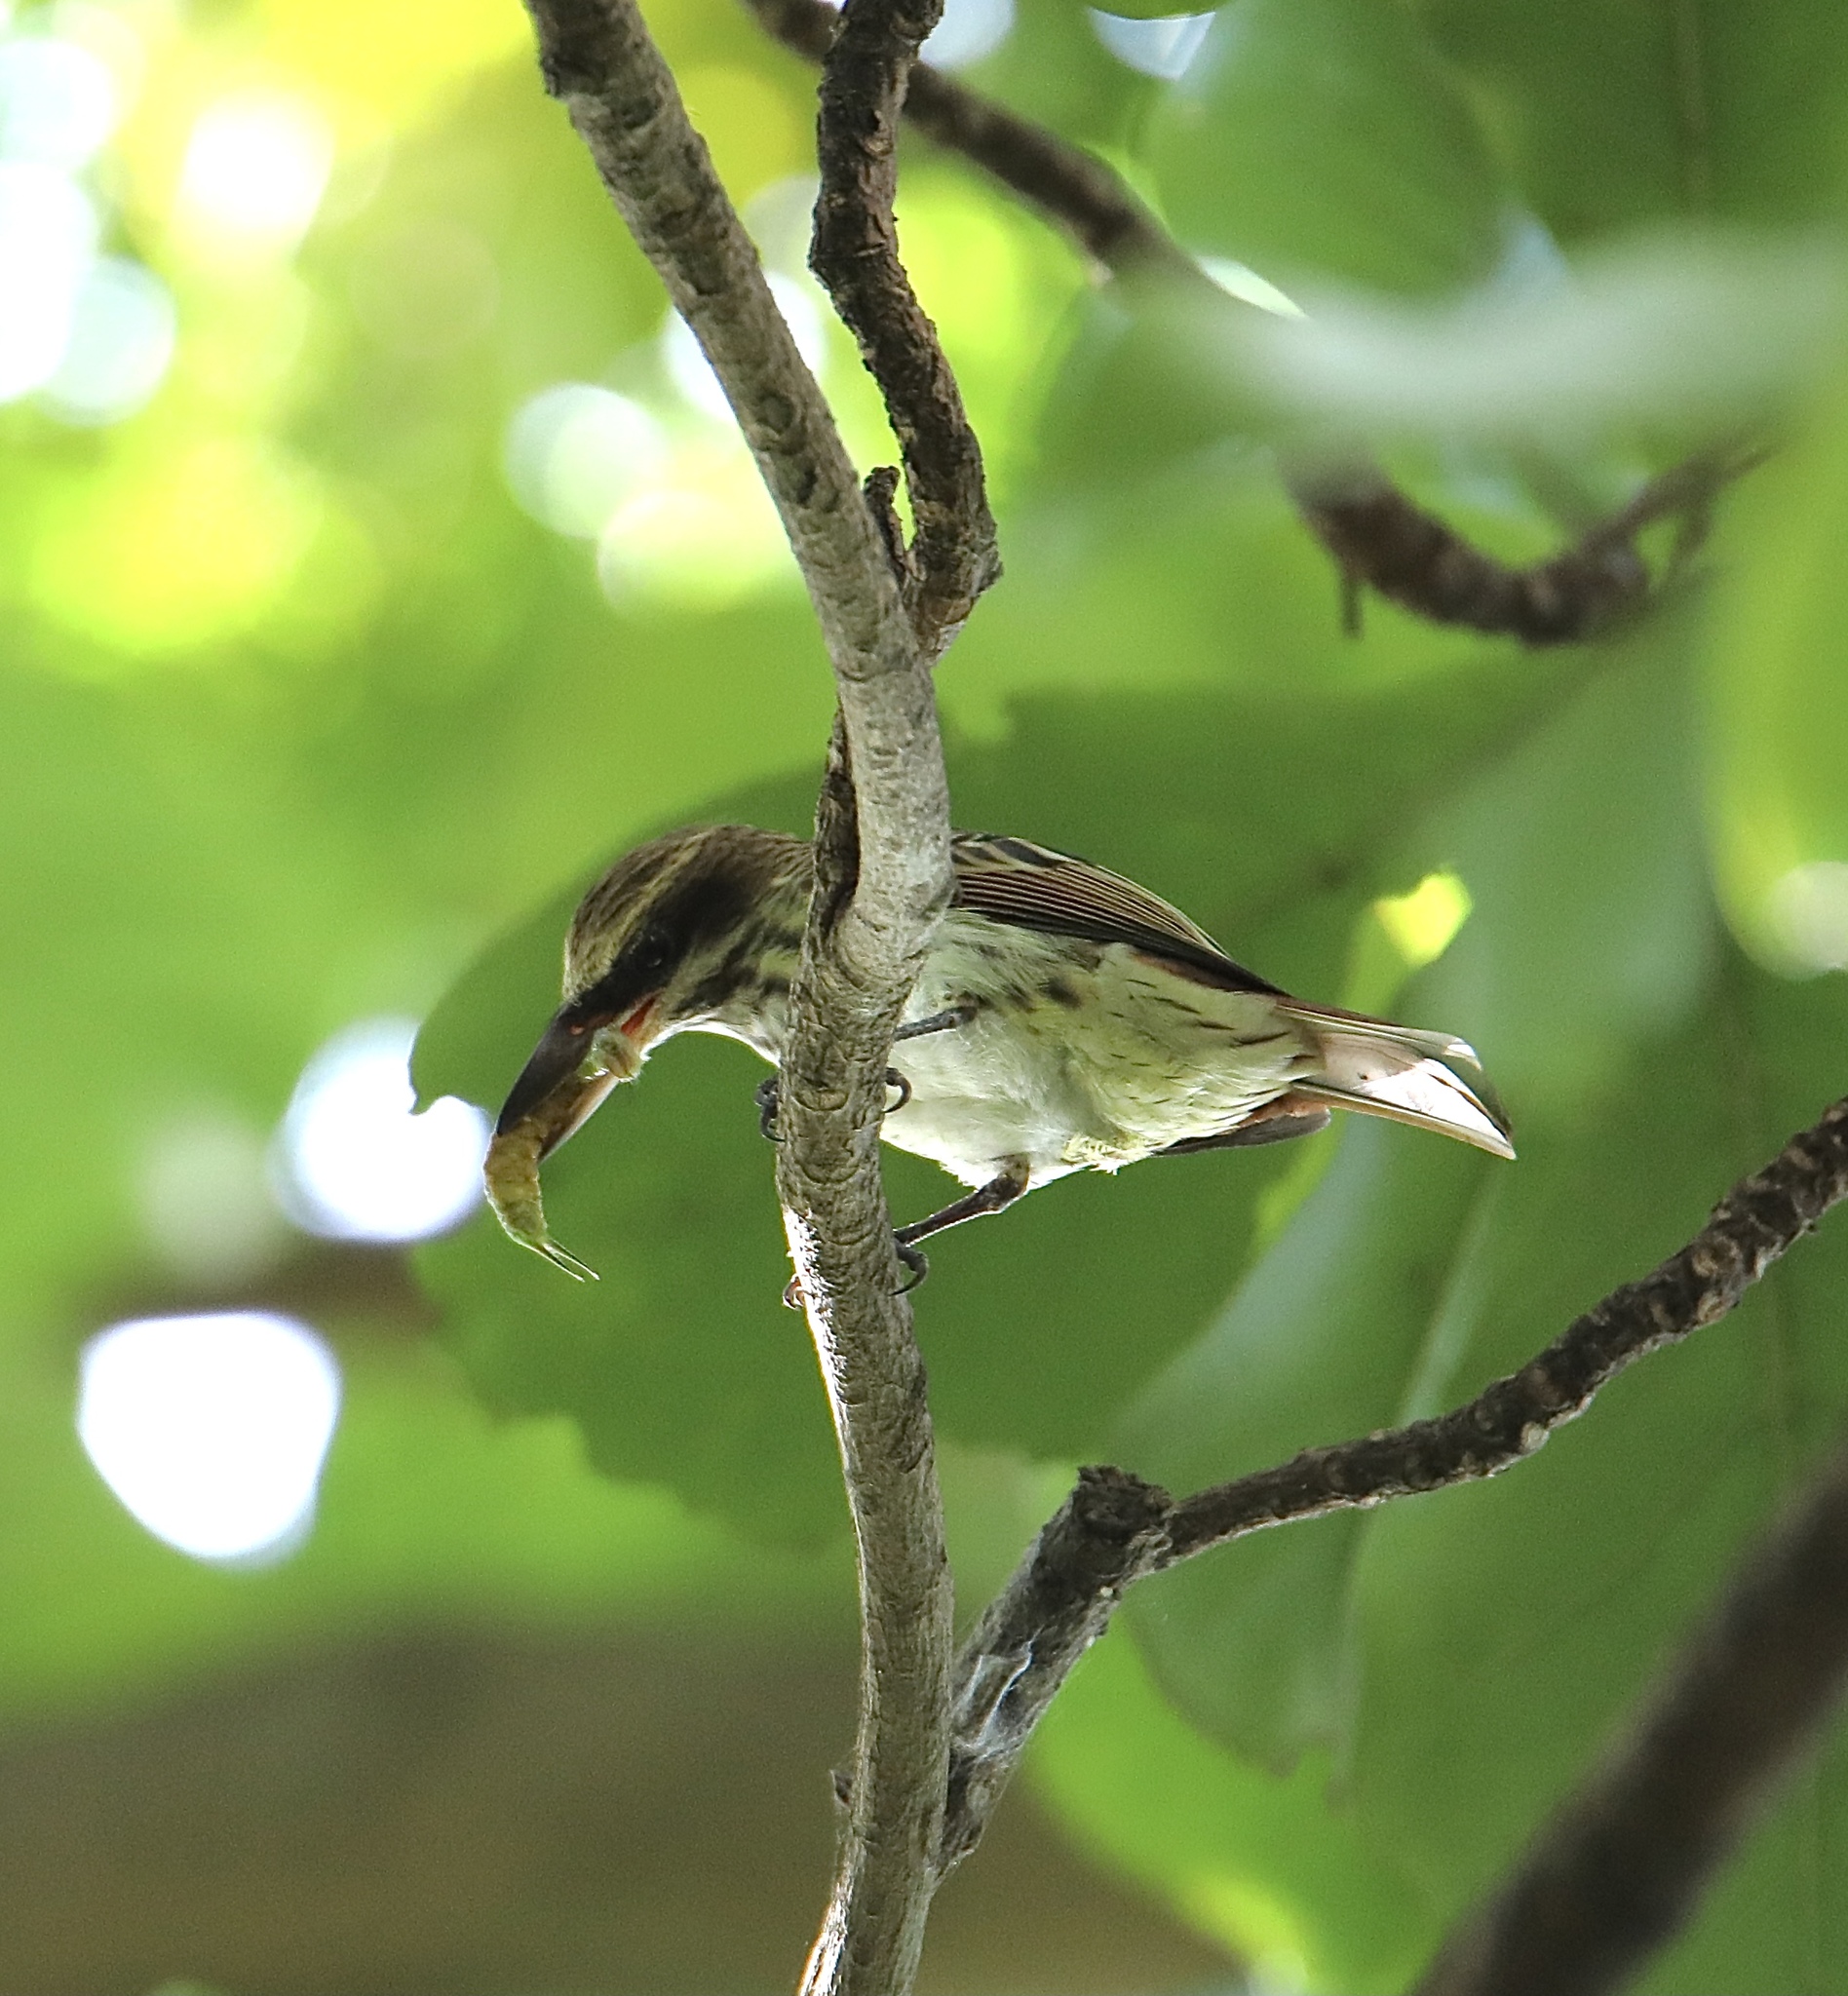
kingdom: Animalia
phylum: Chordata
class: Aves
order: Passeriformes
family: Tyrannidae
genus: Myiodynastes
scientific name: Myiodynastes maculatus
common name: Streaked flycatcher
